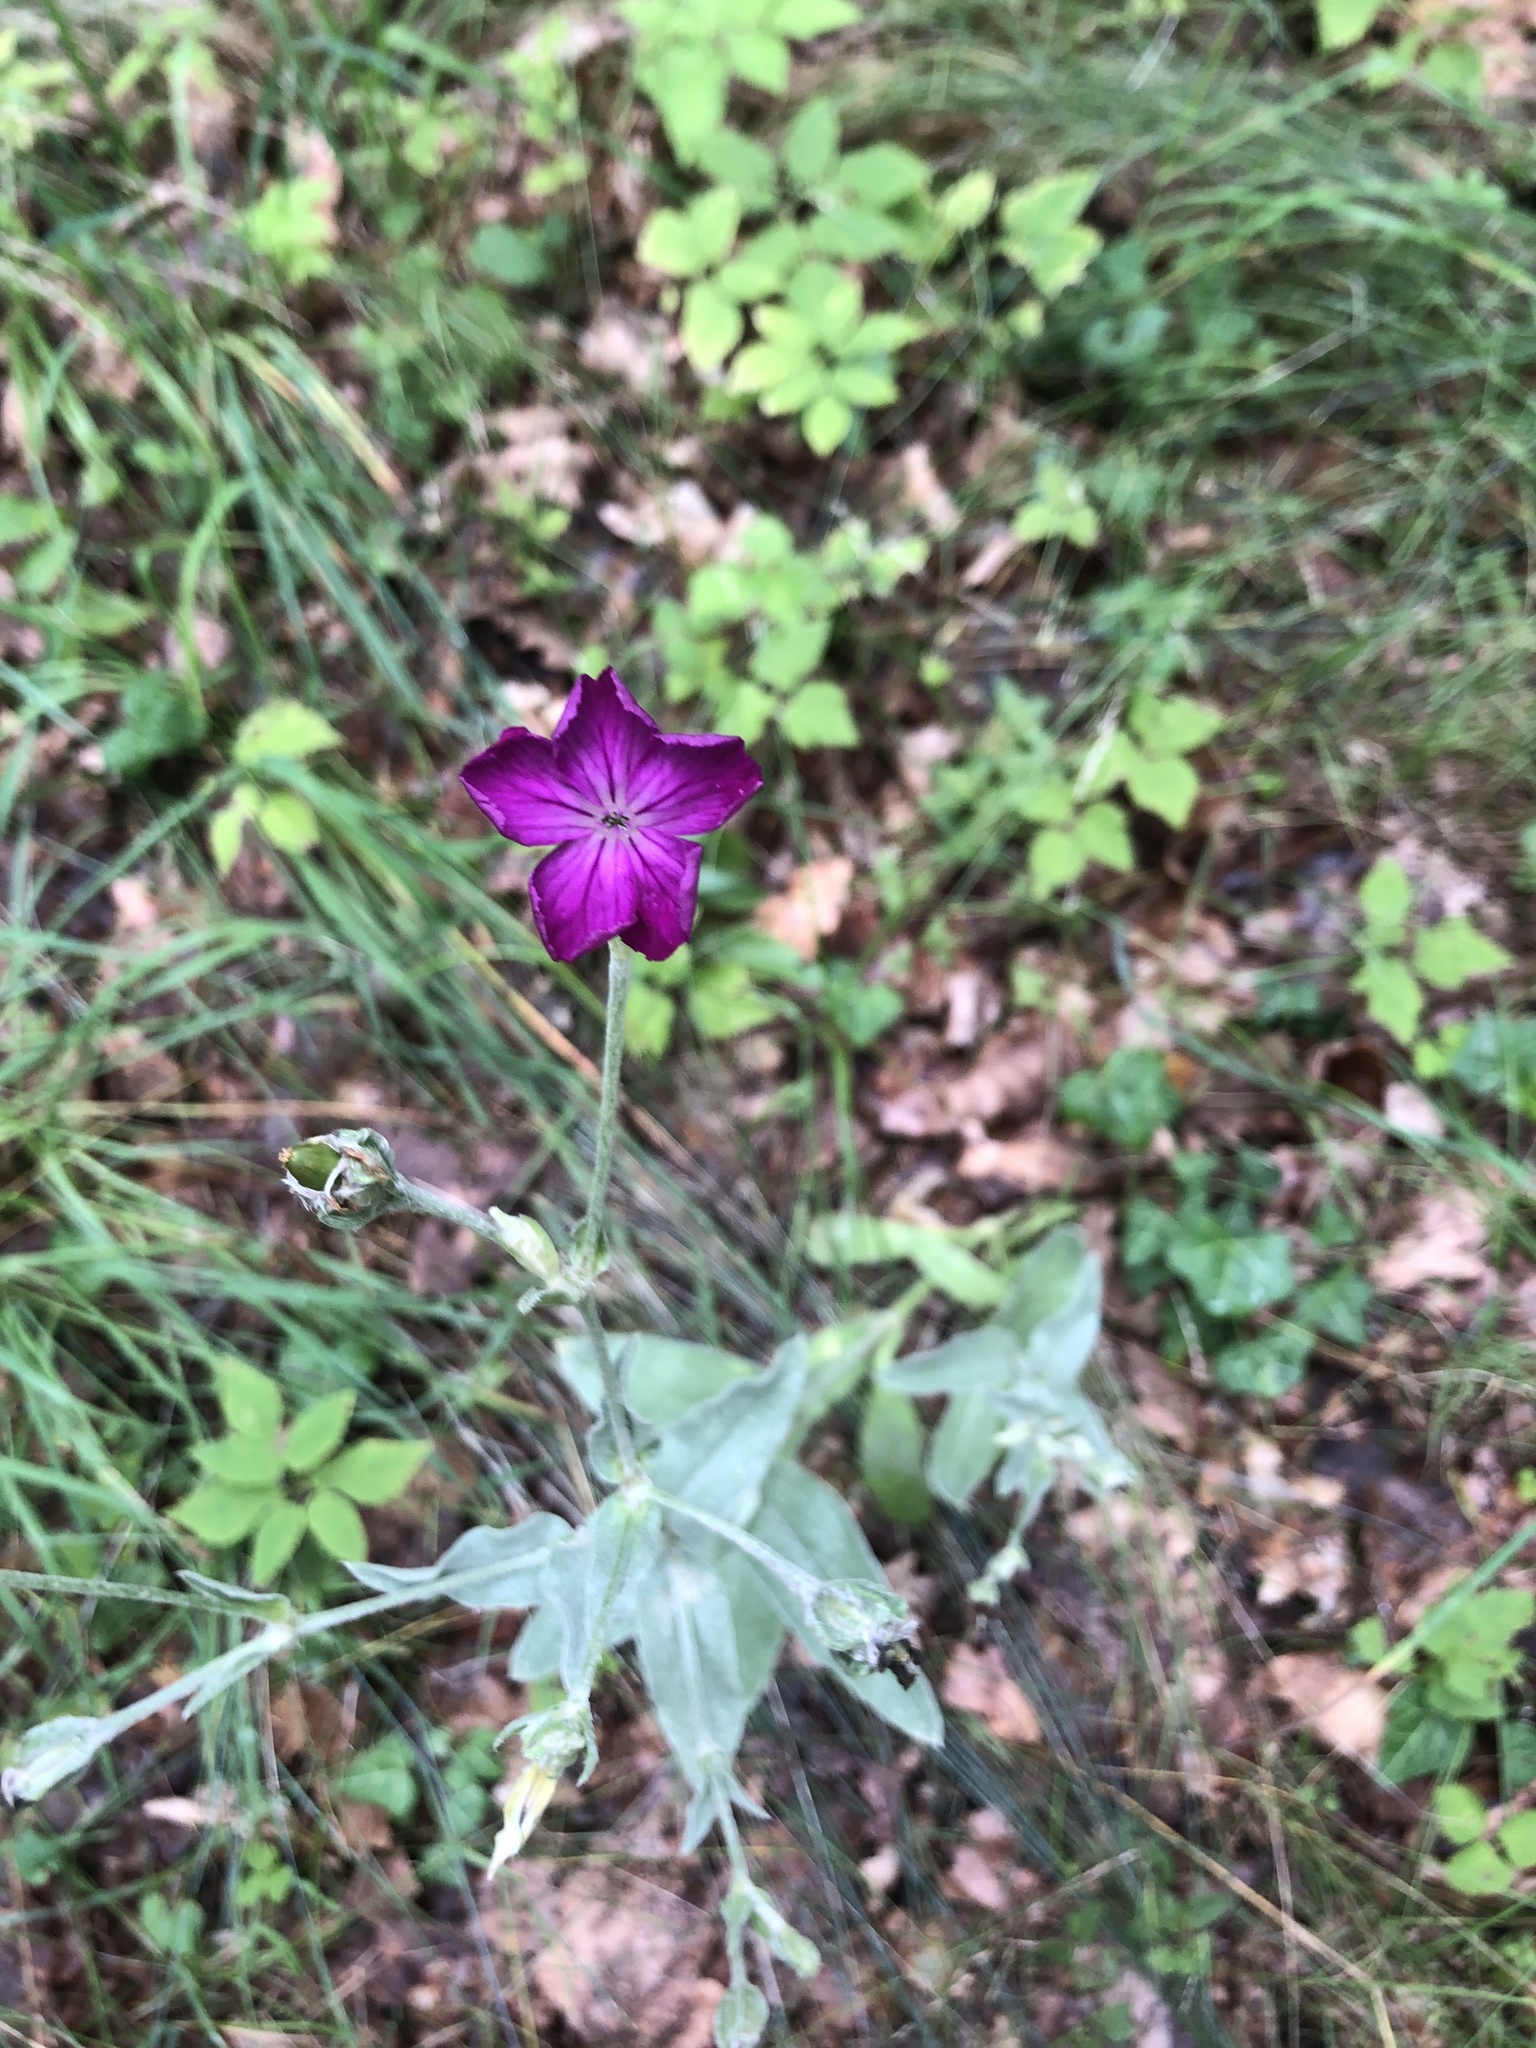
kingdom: Plantae
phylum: Tracheophyta
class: Magnoliopsida
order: Caryophyllales
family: Caryophyllaceae
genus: Silene
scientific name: Silene coronaria
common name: Rose campion
